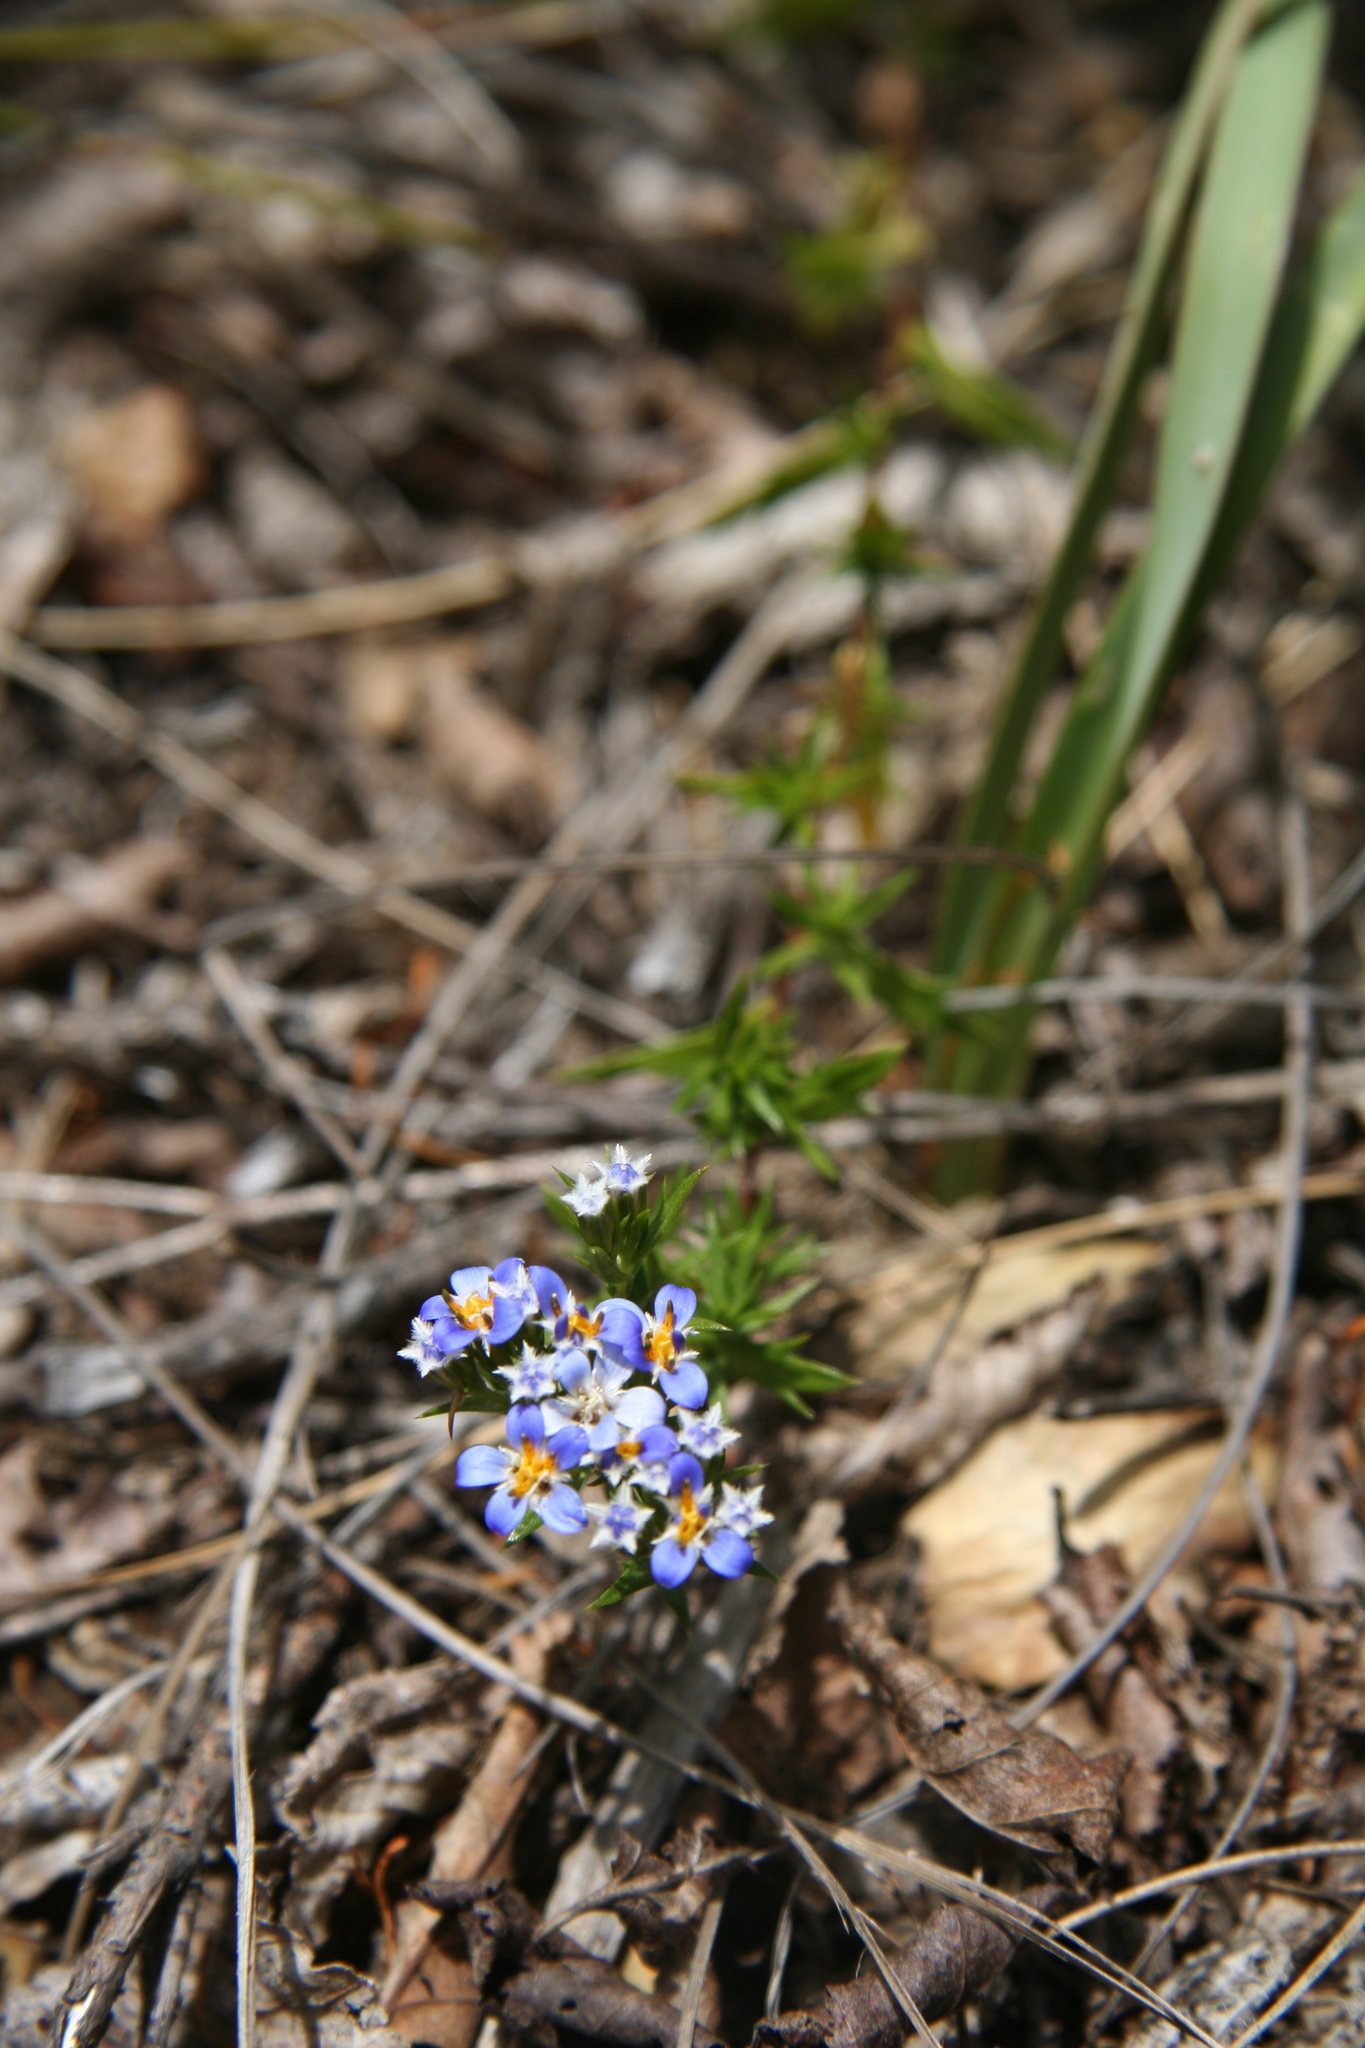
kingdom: Plantae
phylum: Tracheophyta
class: Magnoliopsida
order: Asterales
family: Asteraceae
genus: Triptilion
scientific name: Triptilion spinosum
